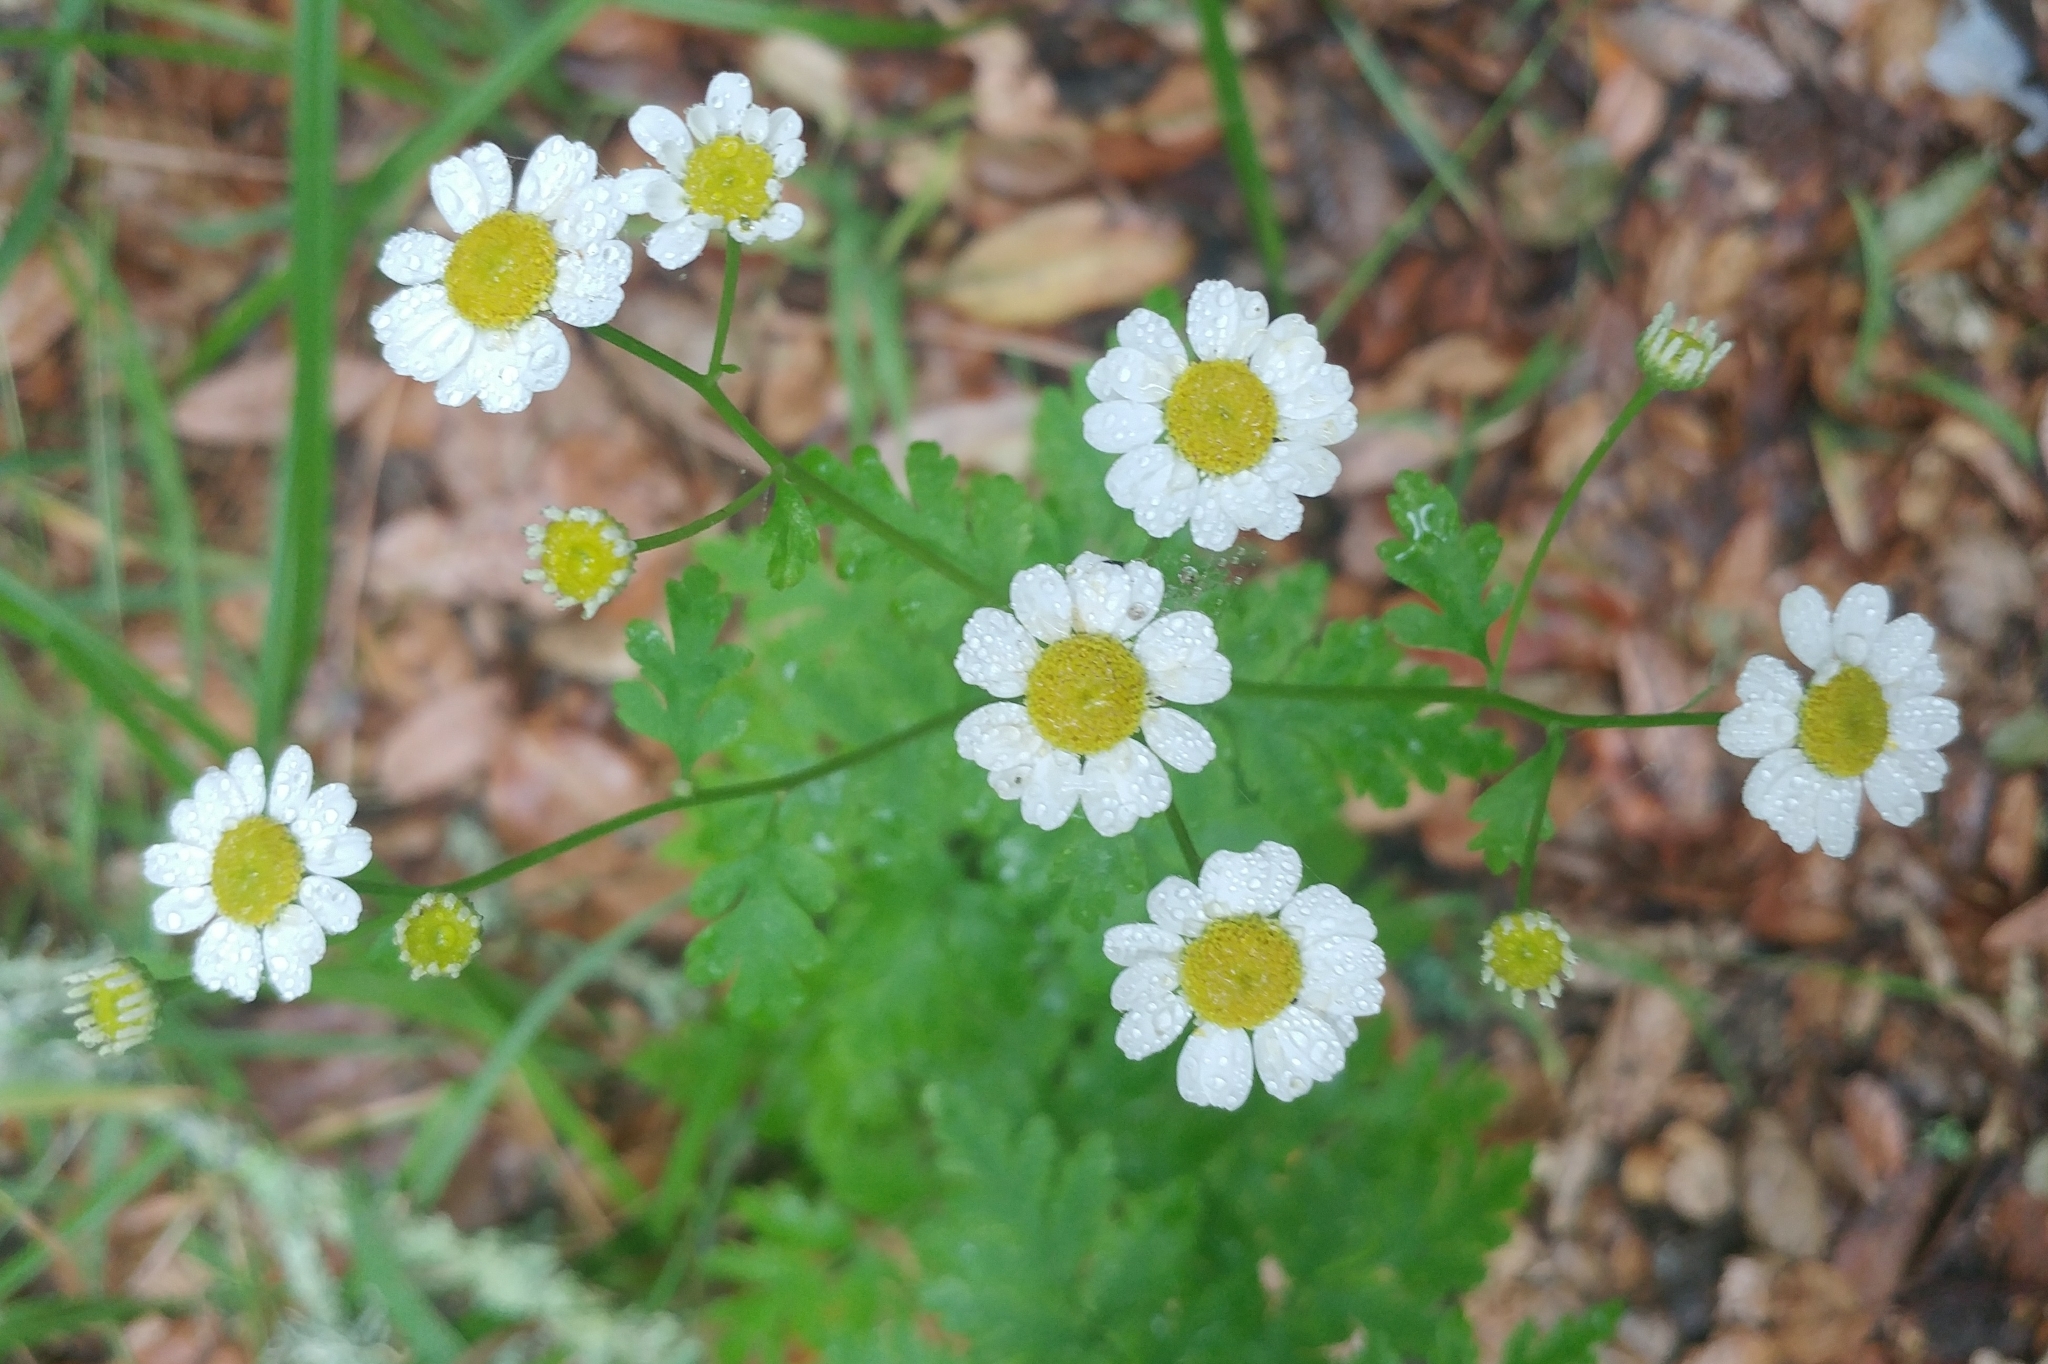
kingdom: Plantae
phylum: Tracheophyta
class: Magnoliopsida
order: Asterales
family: Asteraceae
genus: Tanacetum
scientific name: Tanacetum parthenium
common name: Feverfew
